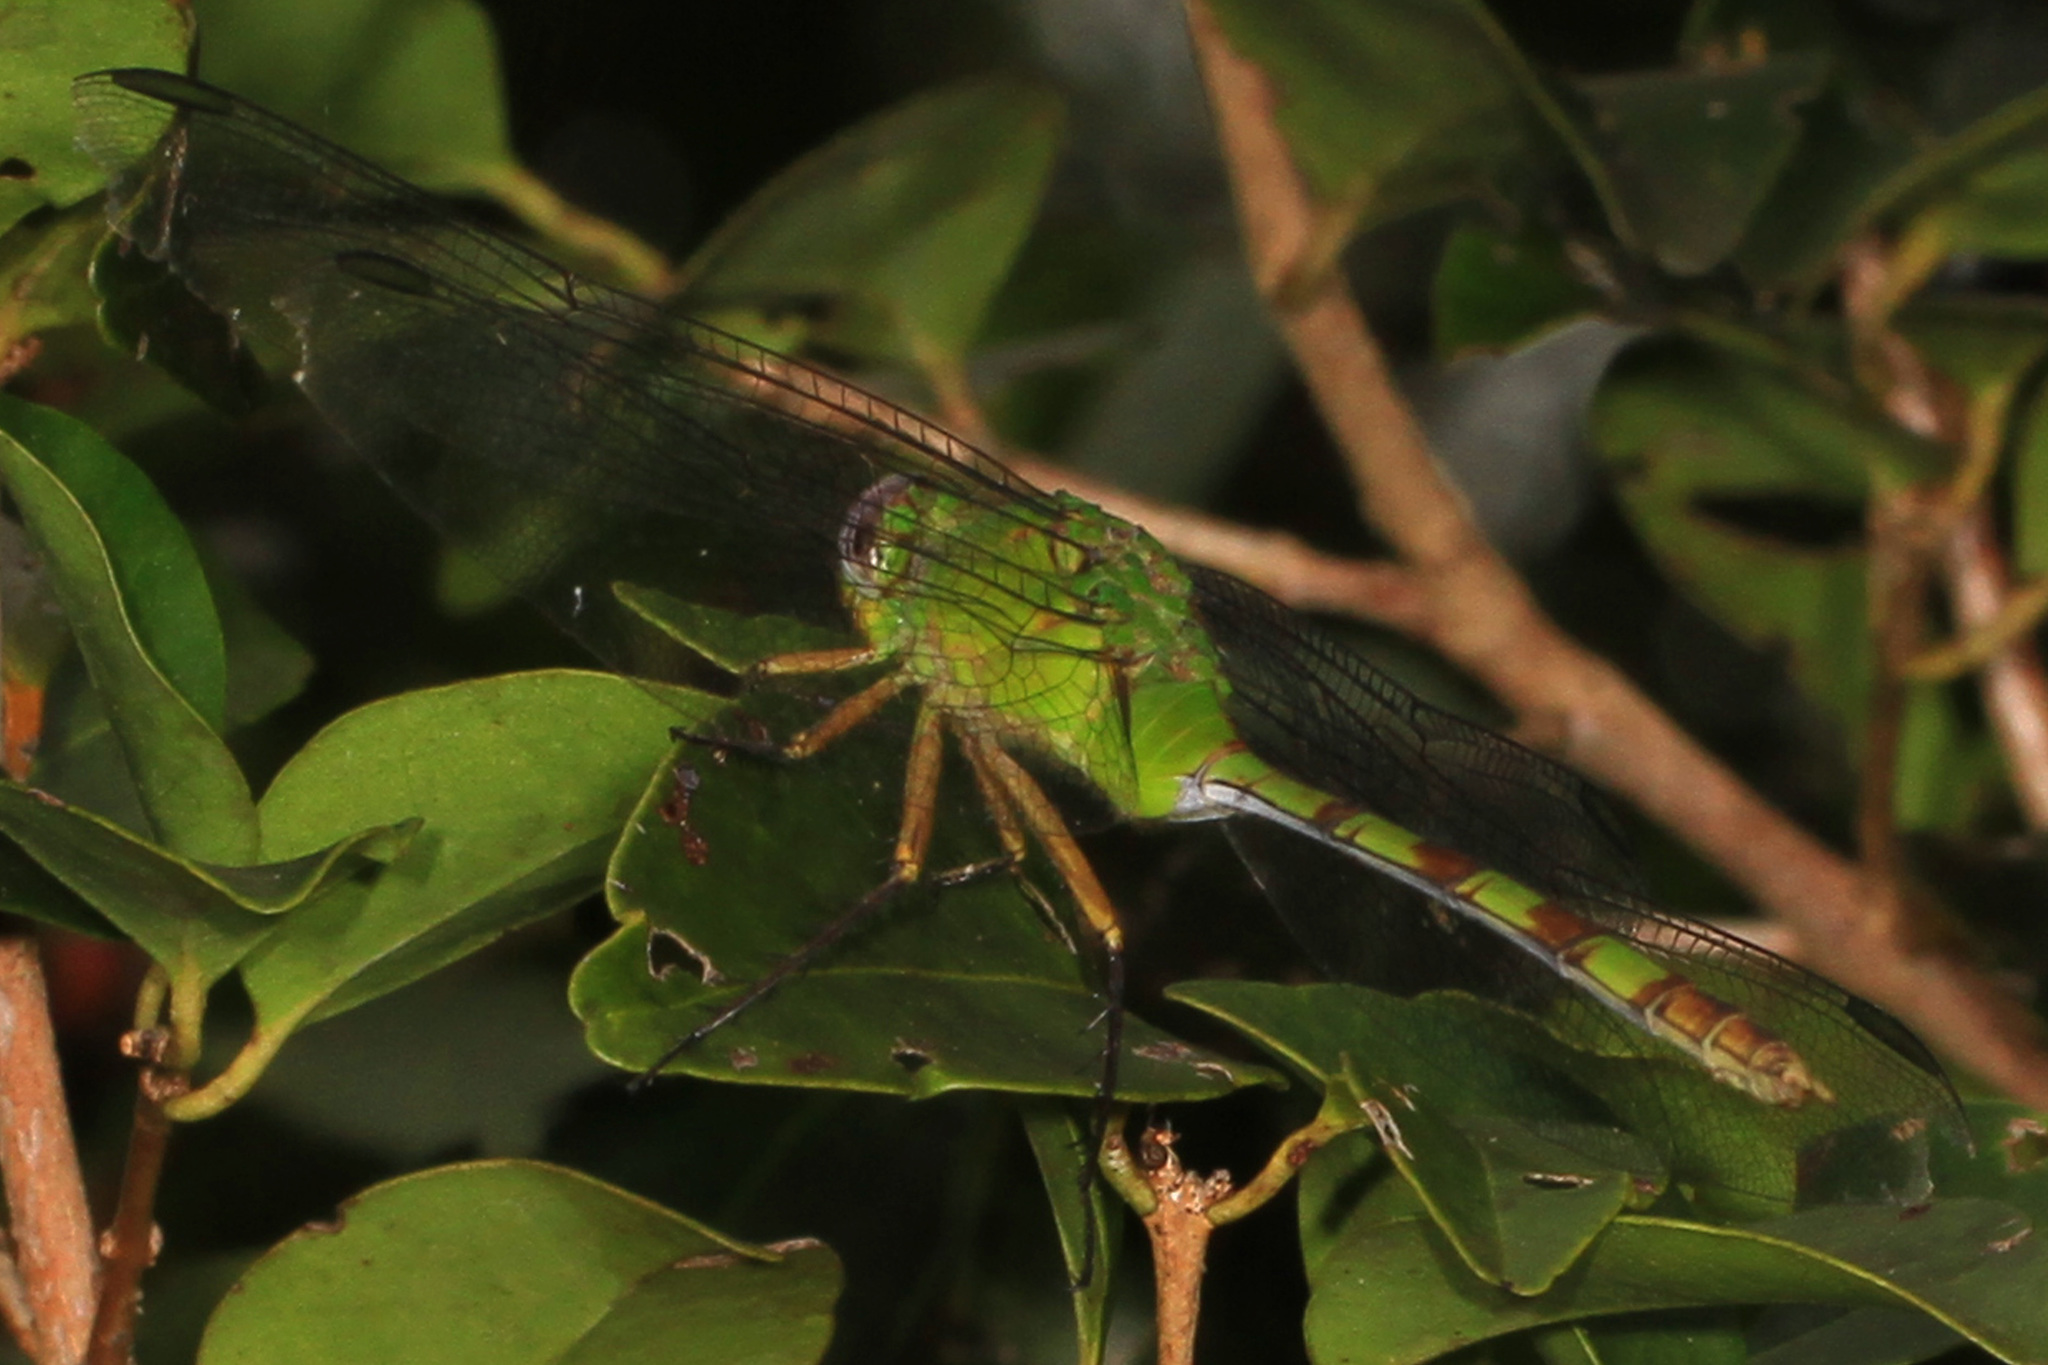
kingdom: Animalia
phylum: Arthropoda
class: Insecta
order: Odonata
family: Libellulidae
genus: Erythemis
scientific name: Erythemis vesiculosa
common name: Great pondhawk
